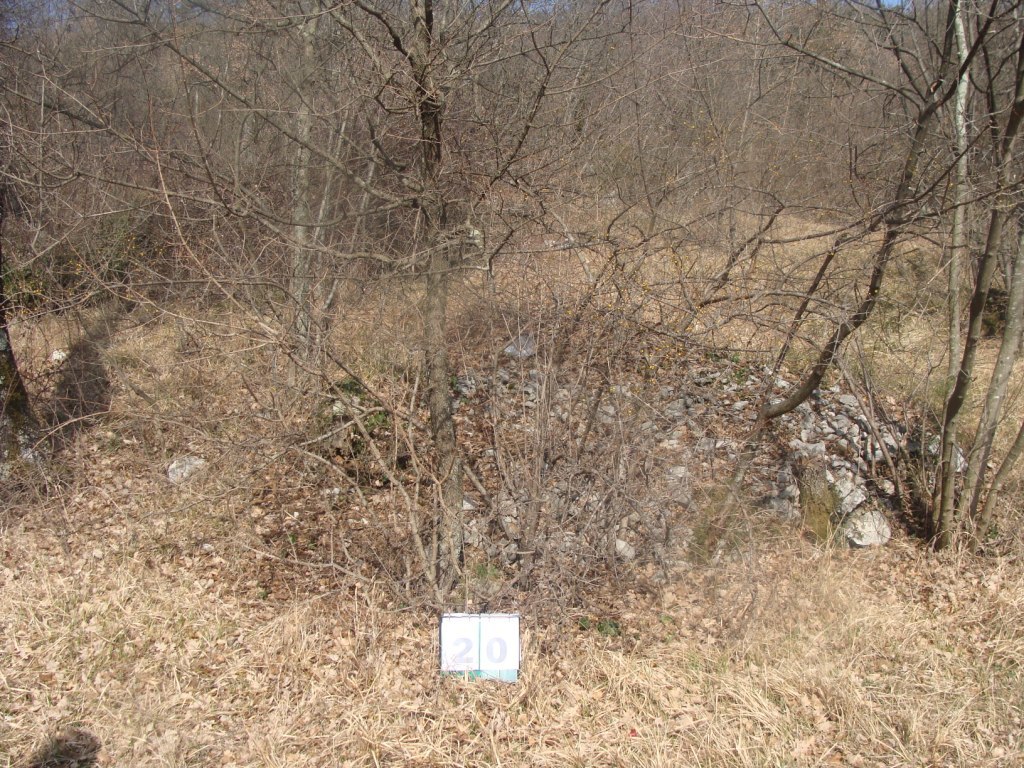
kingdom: Plantae
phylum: Tracheophyta
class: Magnoliopsida
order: Cornales
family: Cornaceae
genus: Cornus
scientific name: Cornus mas
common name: Cornelian-cherry
